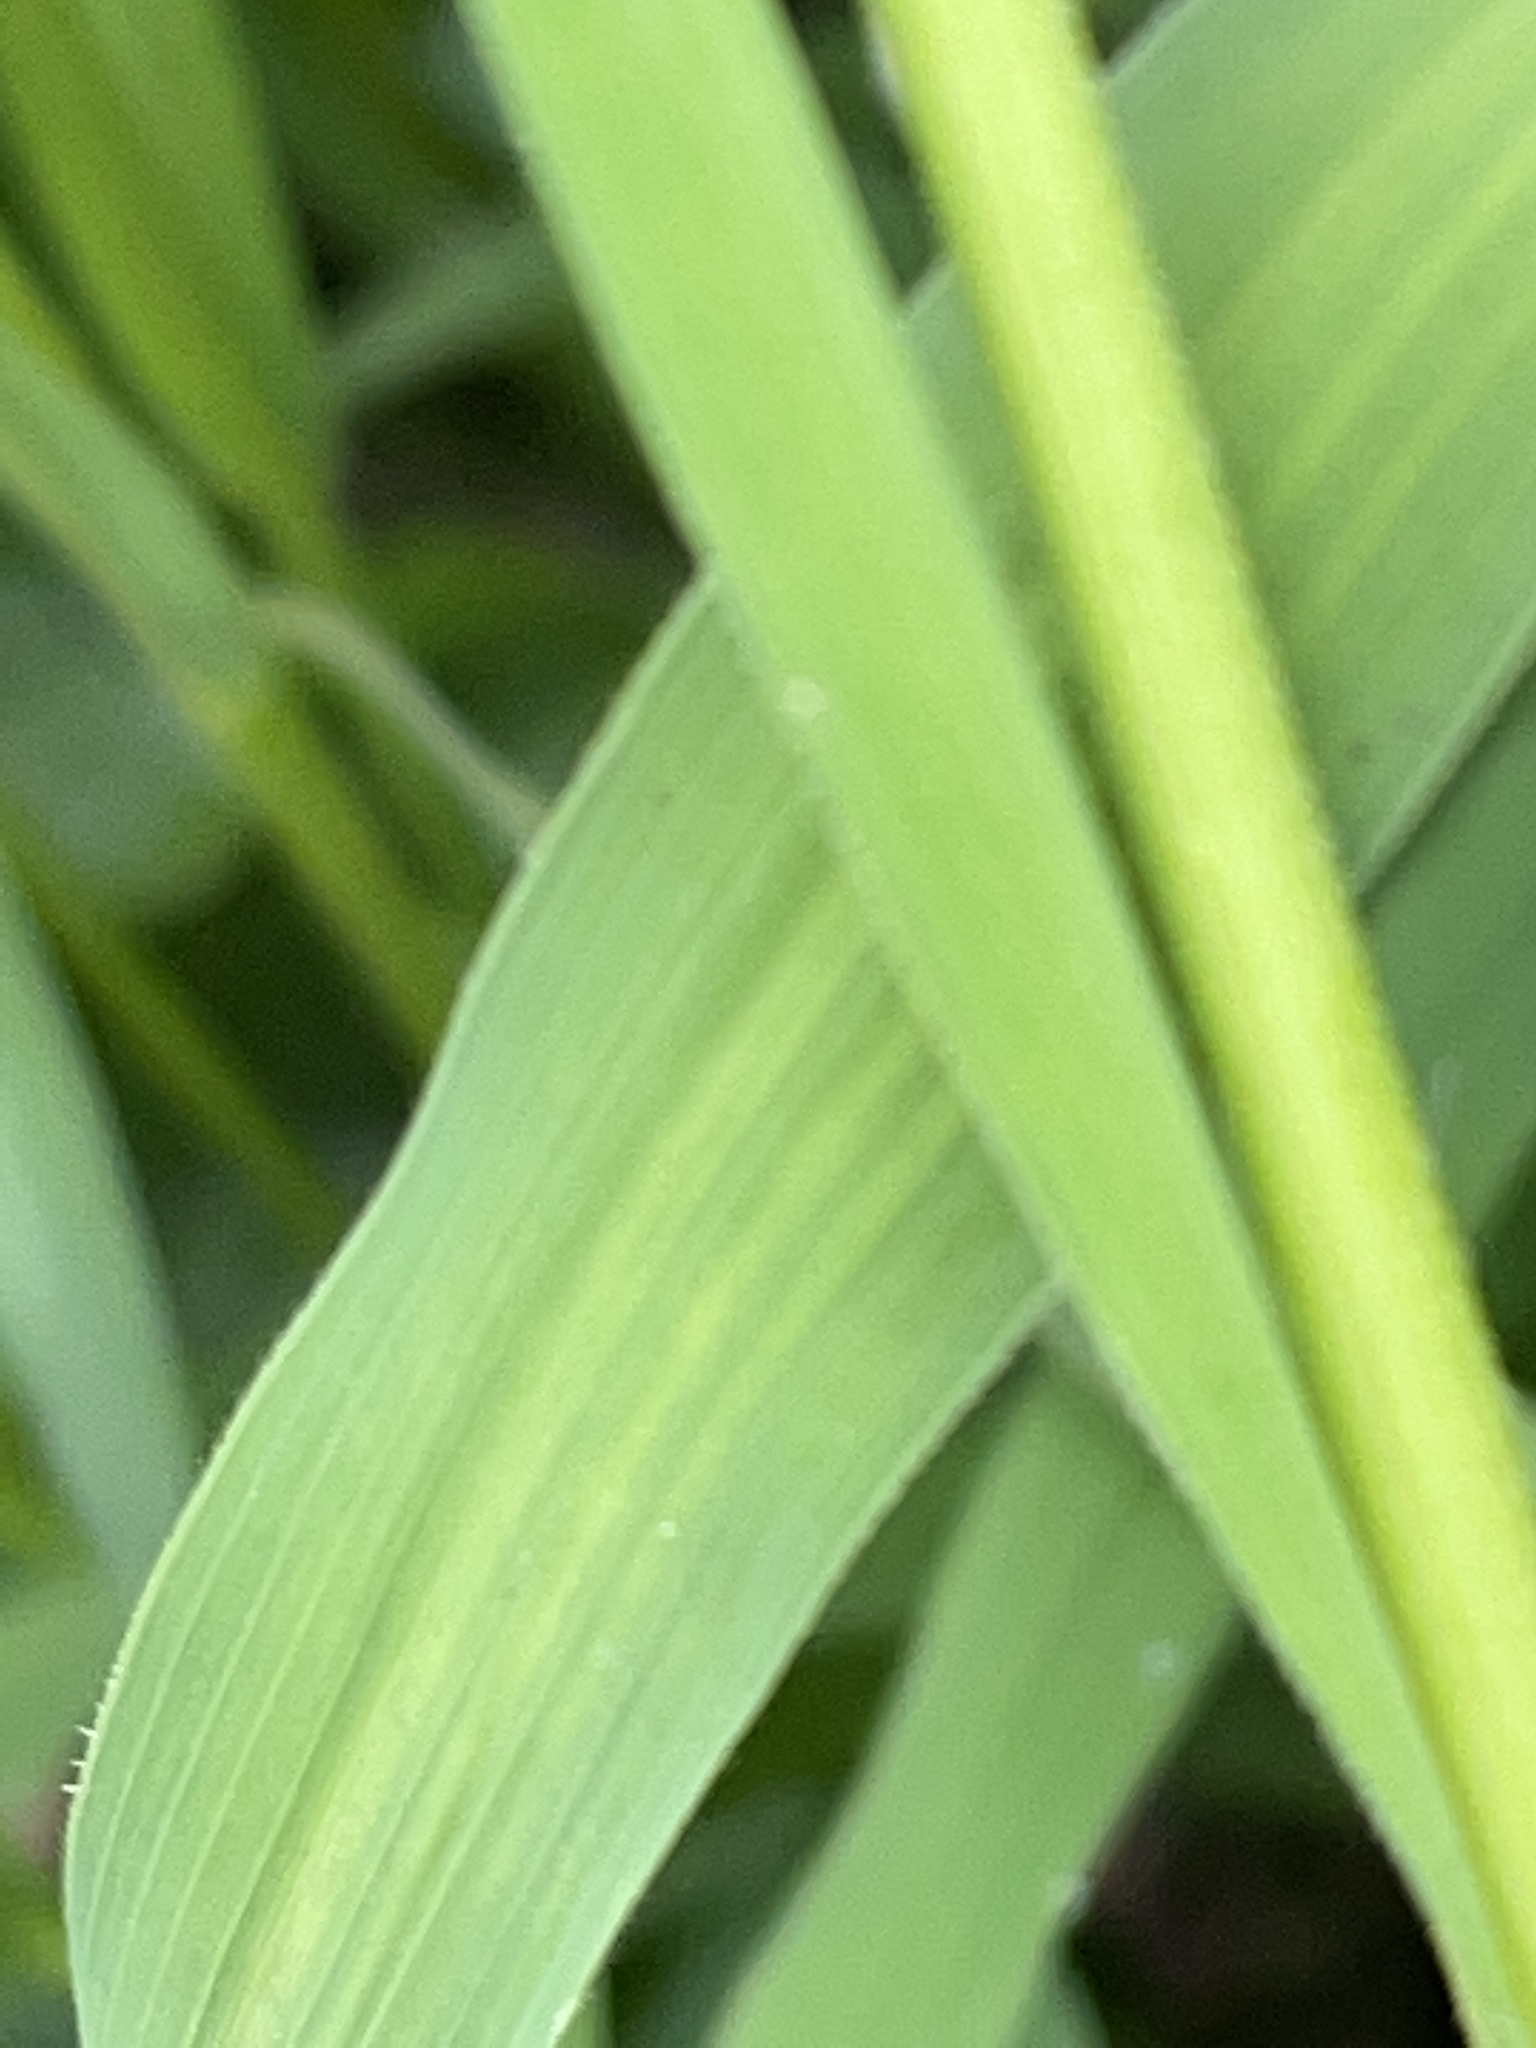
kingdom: Plantae
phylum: Tracheophyta
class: Liliopsida
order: Poales
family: Poaceae
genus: Leersia
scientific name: Leersia oryzoides
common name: Cut-grass
